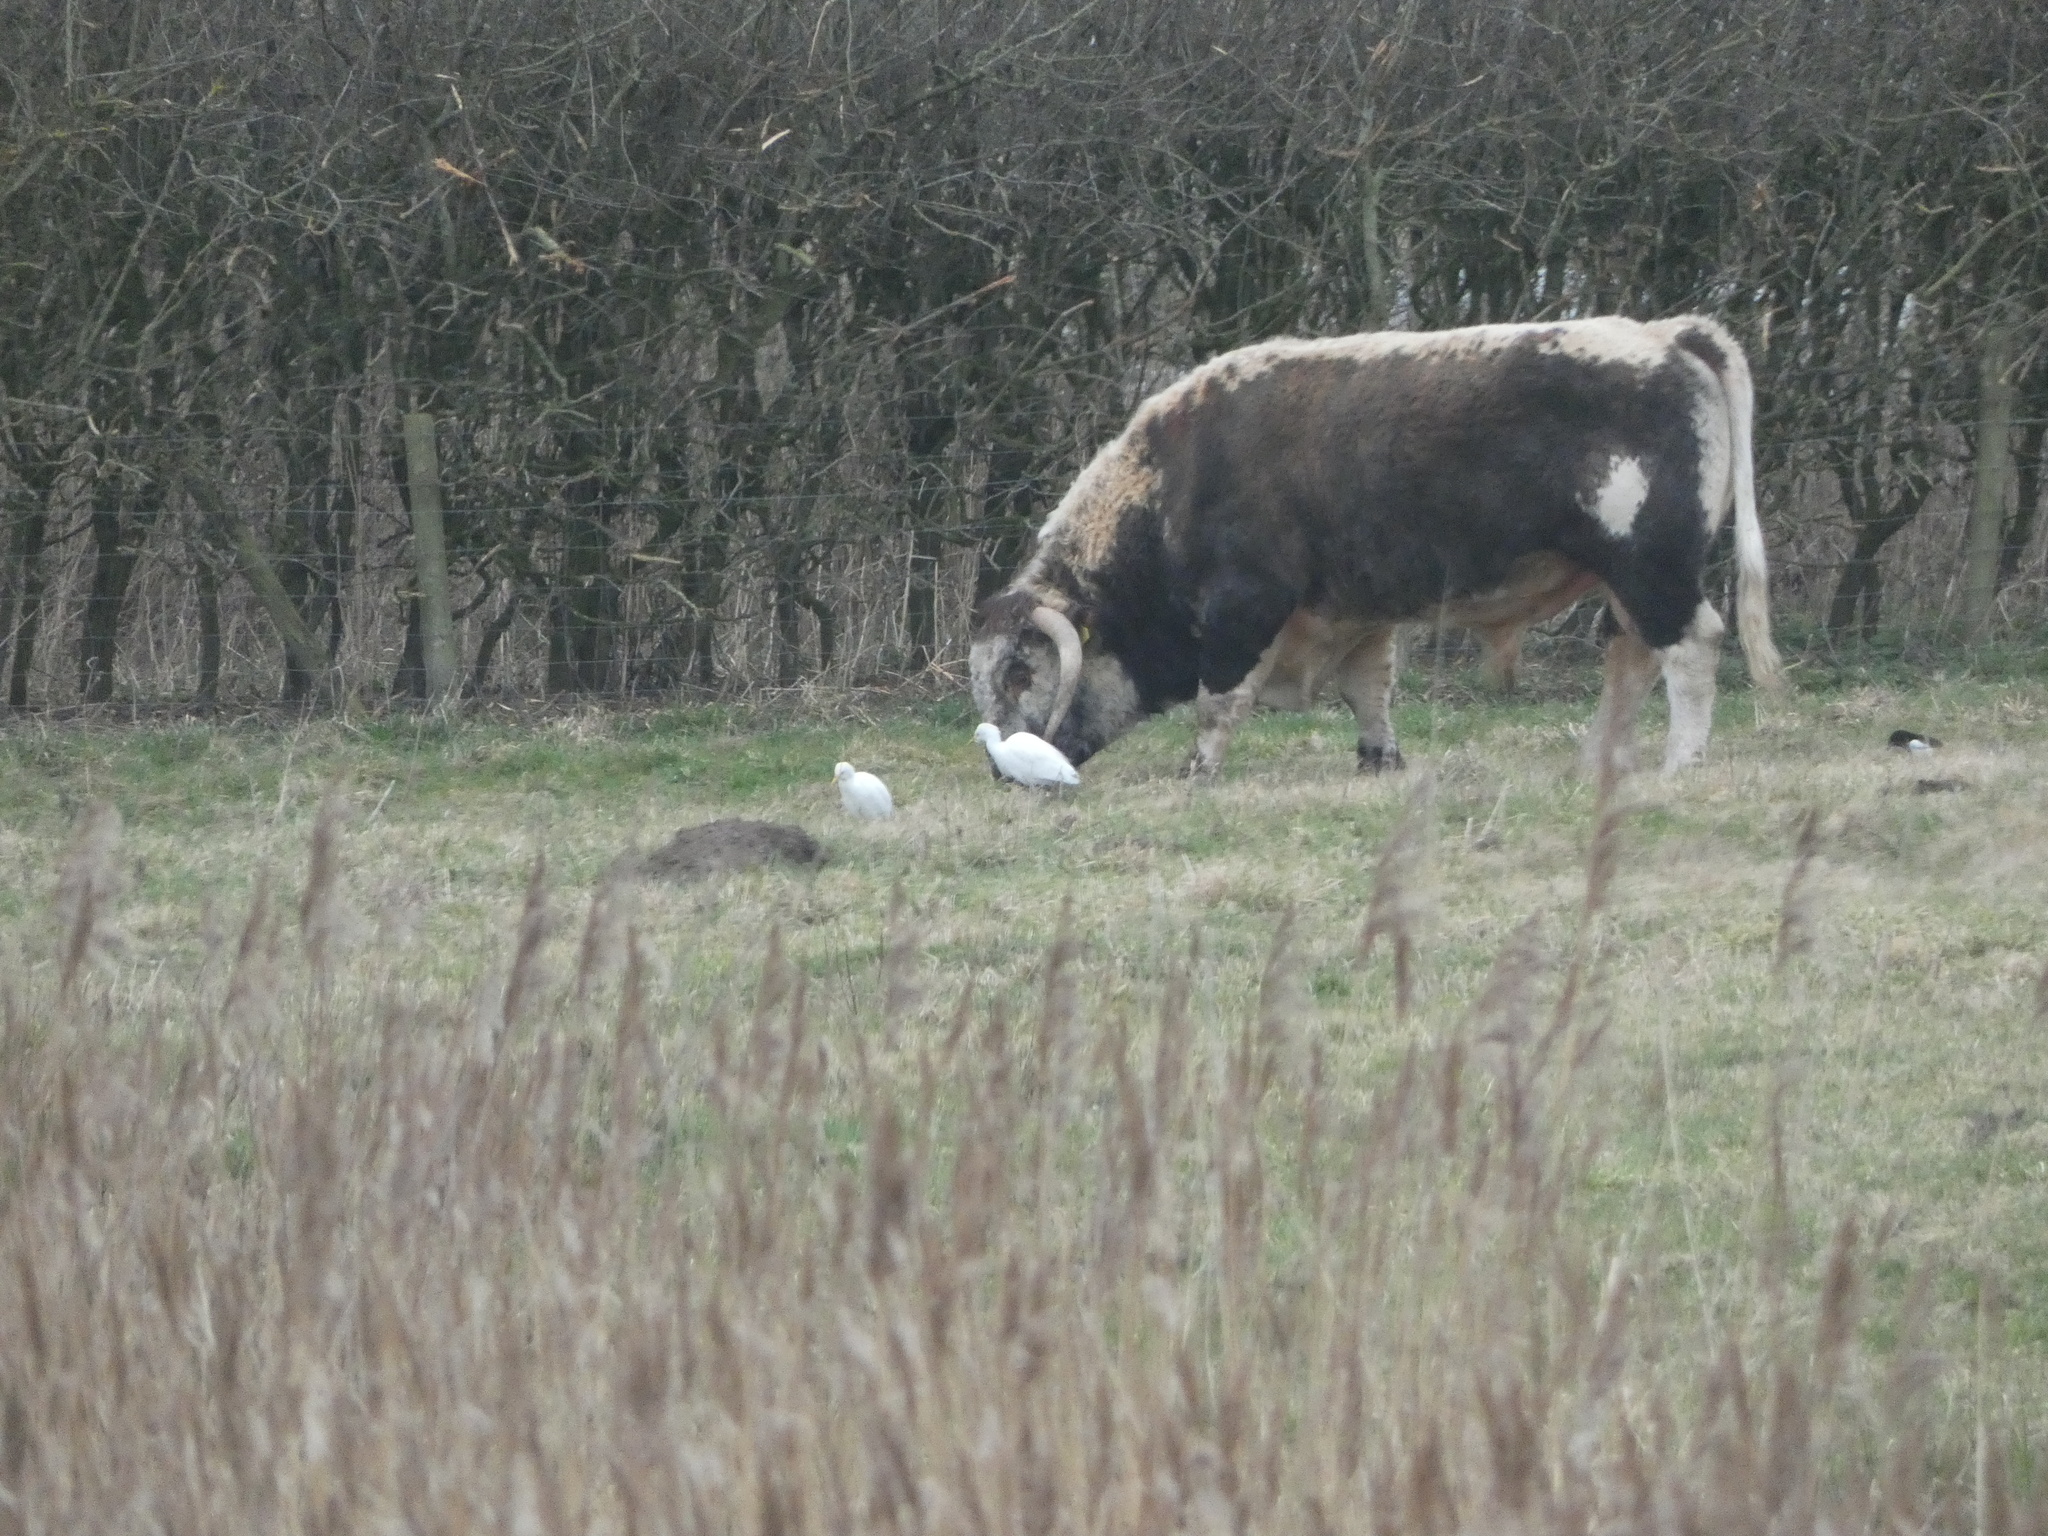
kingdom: Animalia
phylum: Chordata
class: Aves
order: Pelecaniformes
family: Ardeidae
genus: Bubulcus
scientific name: Bubulcus ibis
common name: Cattle egret
